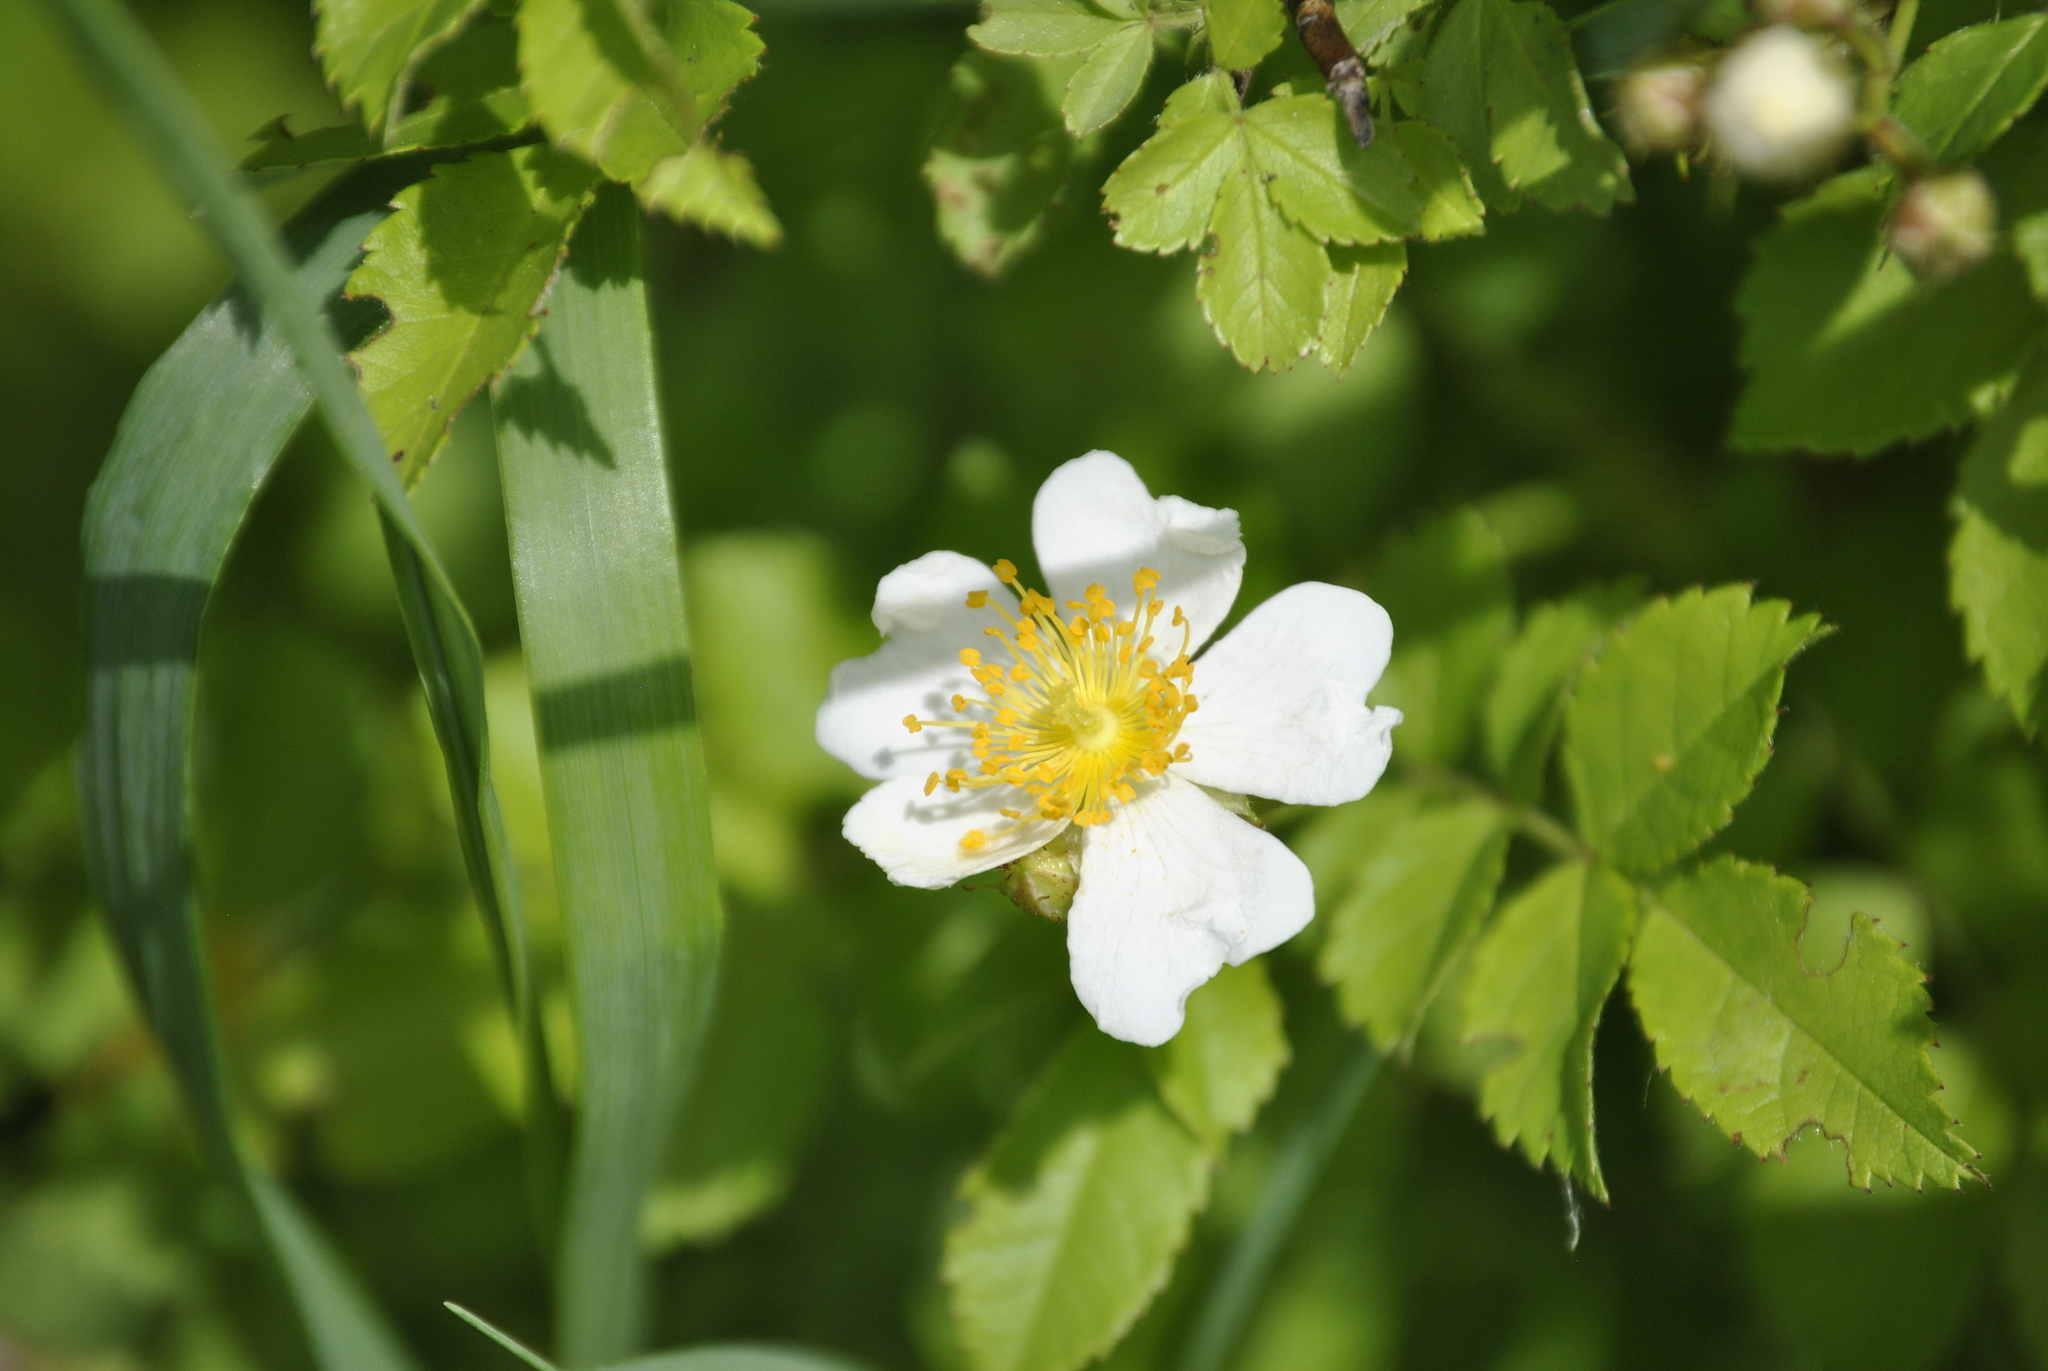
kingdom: Plantae
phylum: Tracheophyta
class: Magnoliopsida
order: Rosales
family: Rosaceae
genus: Rosa
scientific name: Rosa multiflora
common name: Multiflora rose
